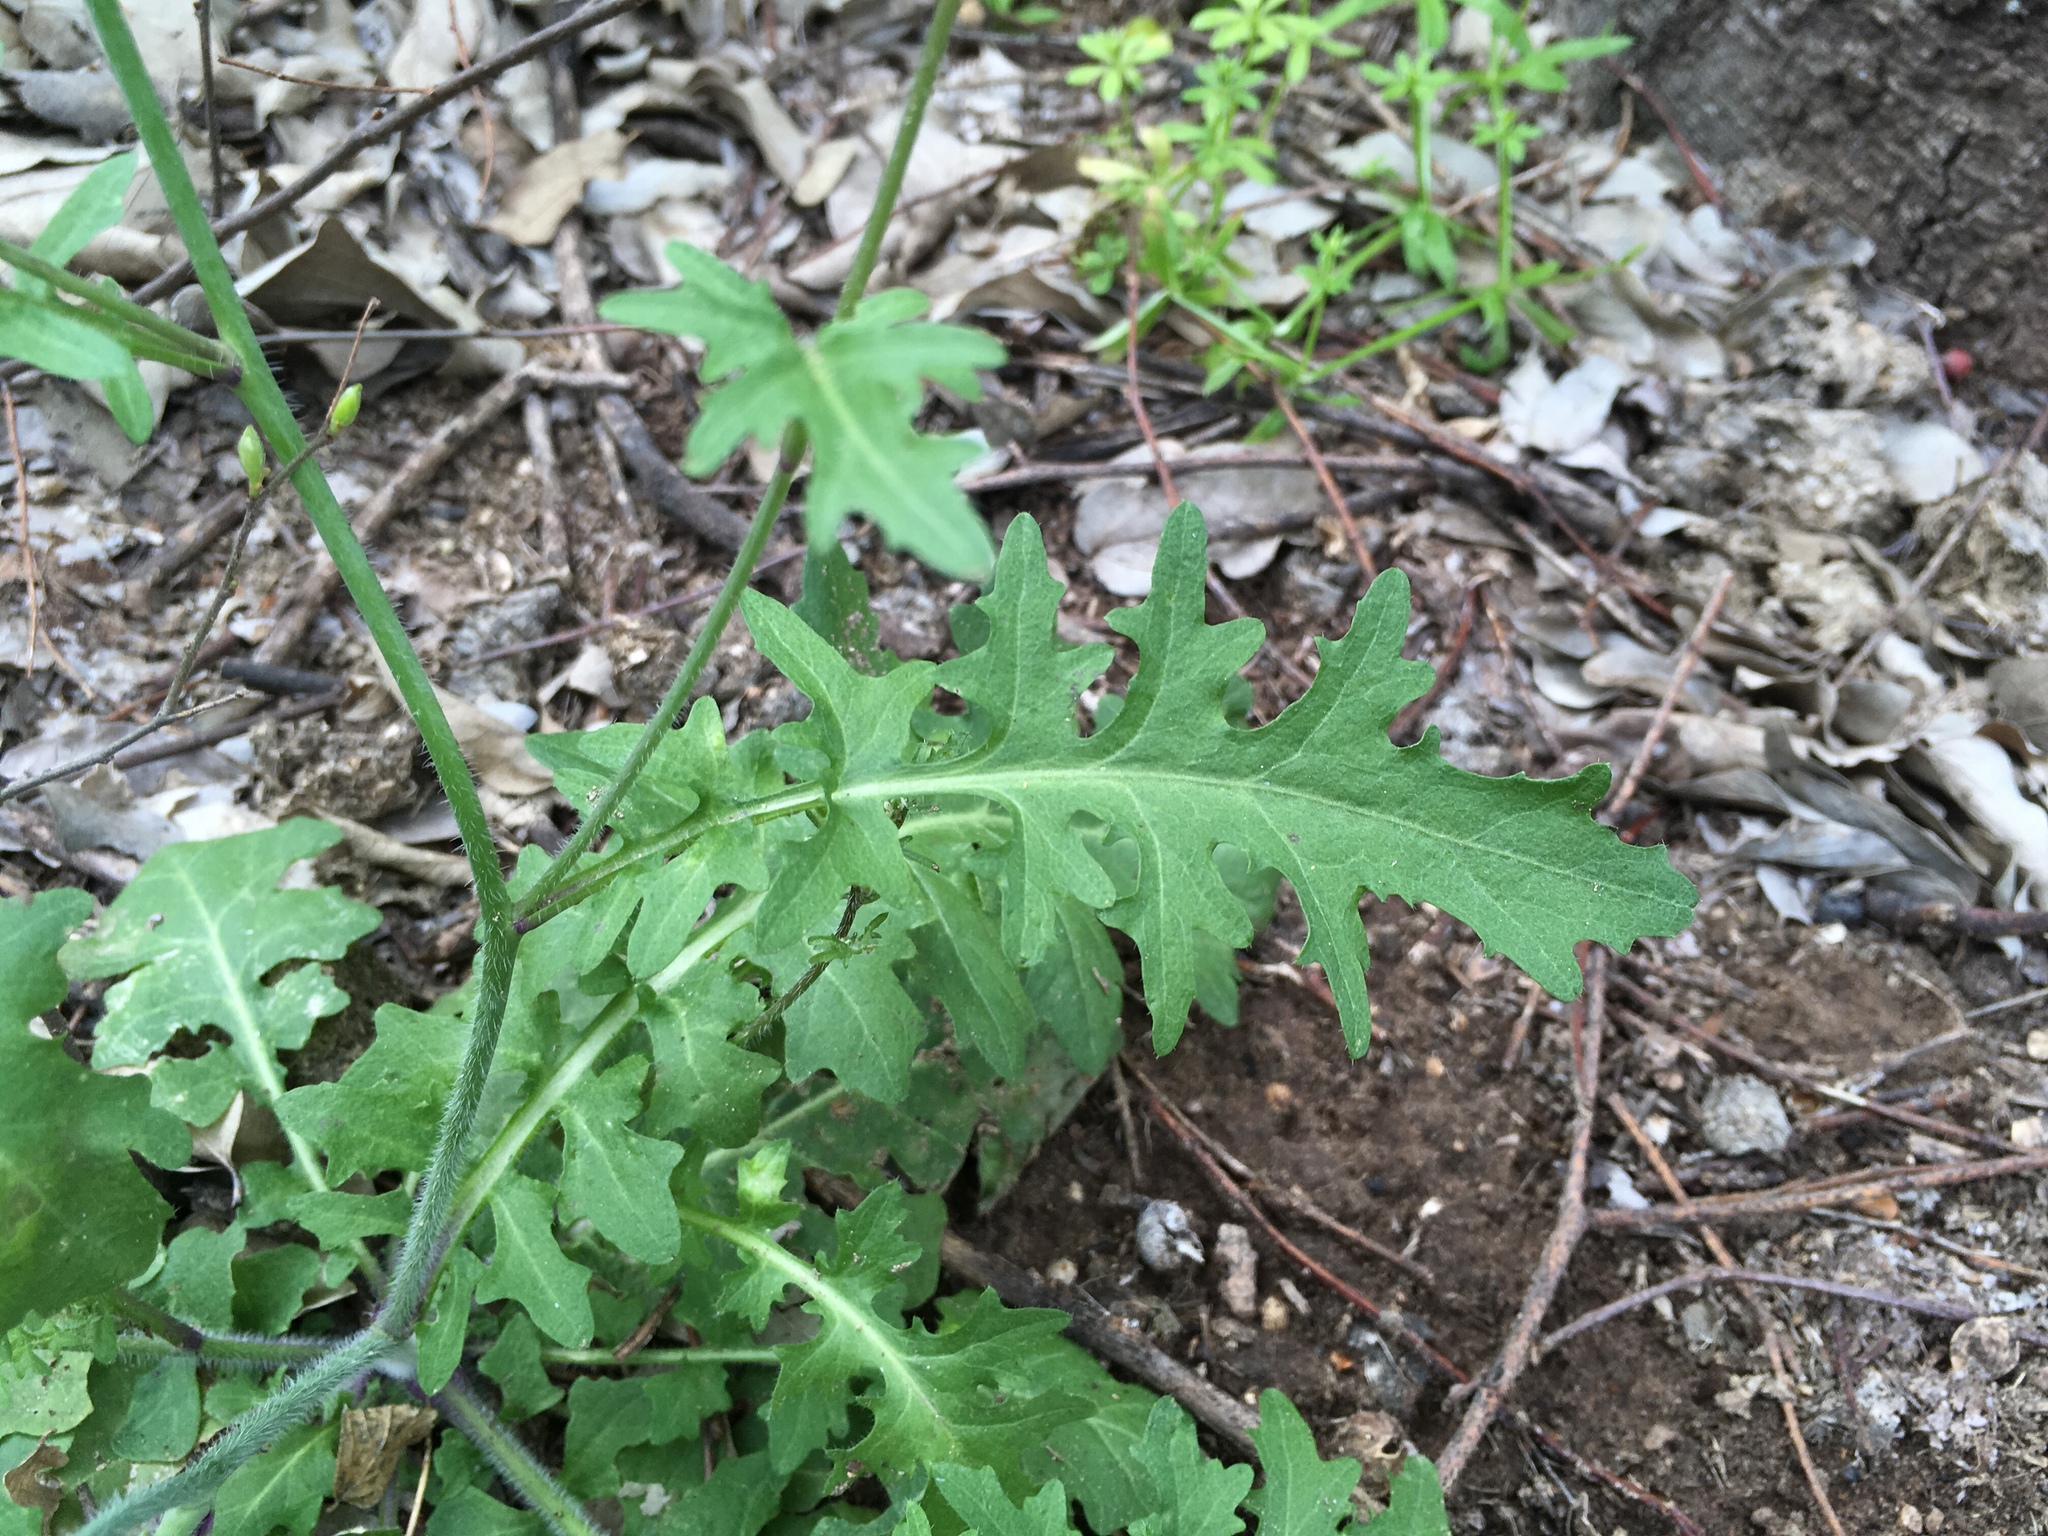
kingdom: Plantae
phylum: Tracheophyta
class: Magnoliopsida
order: Brassicales
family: Brassicaceae
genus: Dryopetalon
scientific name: Dryopetalon runcinatum
